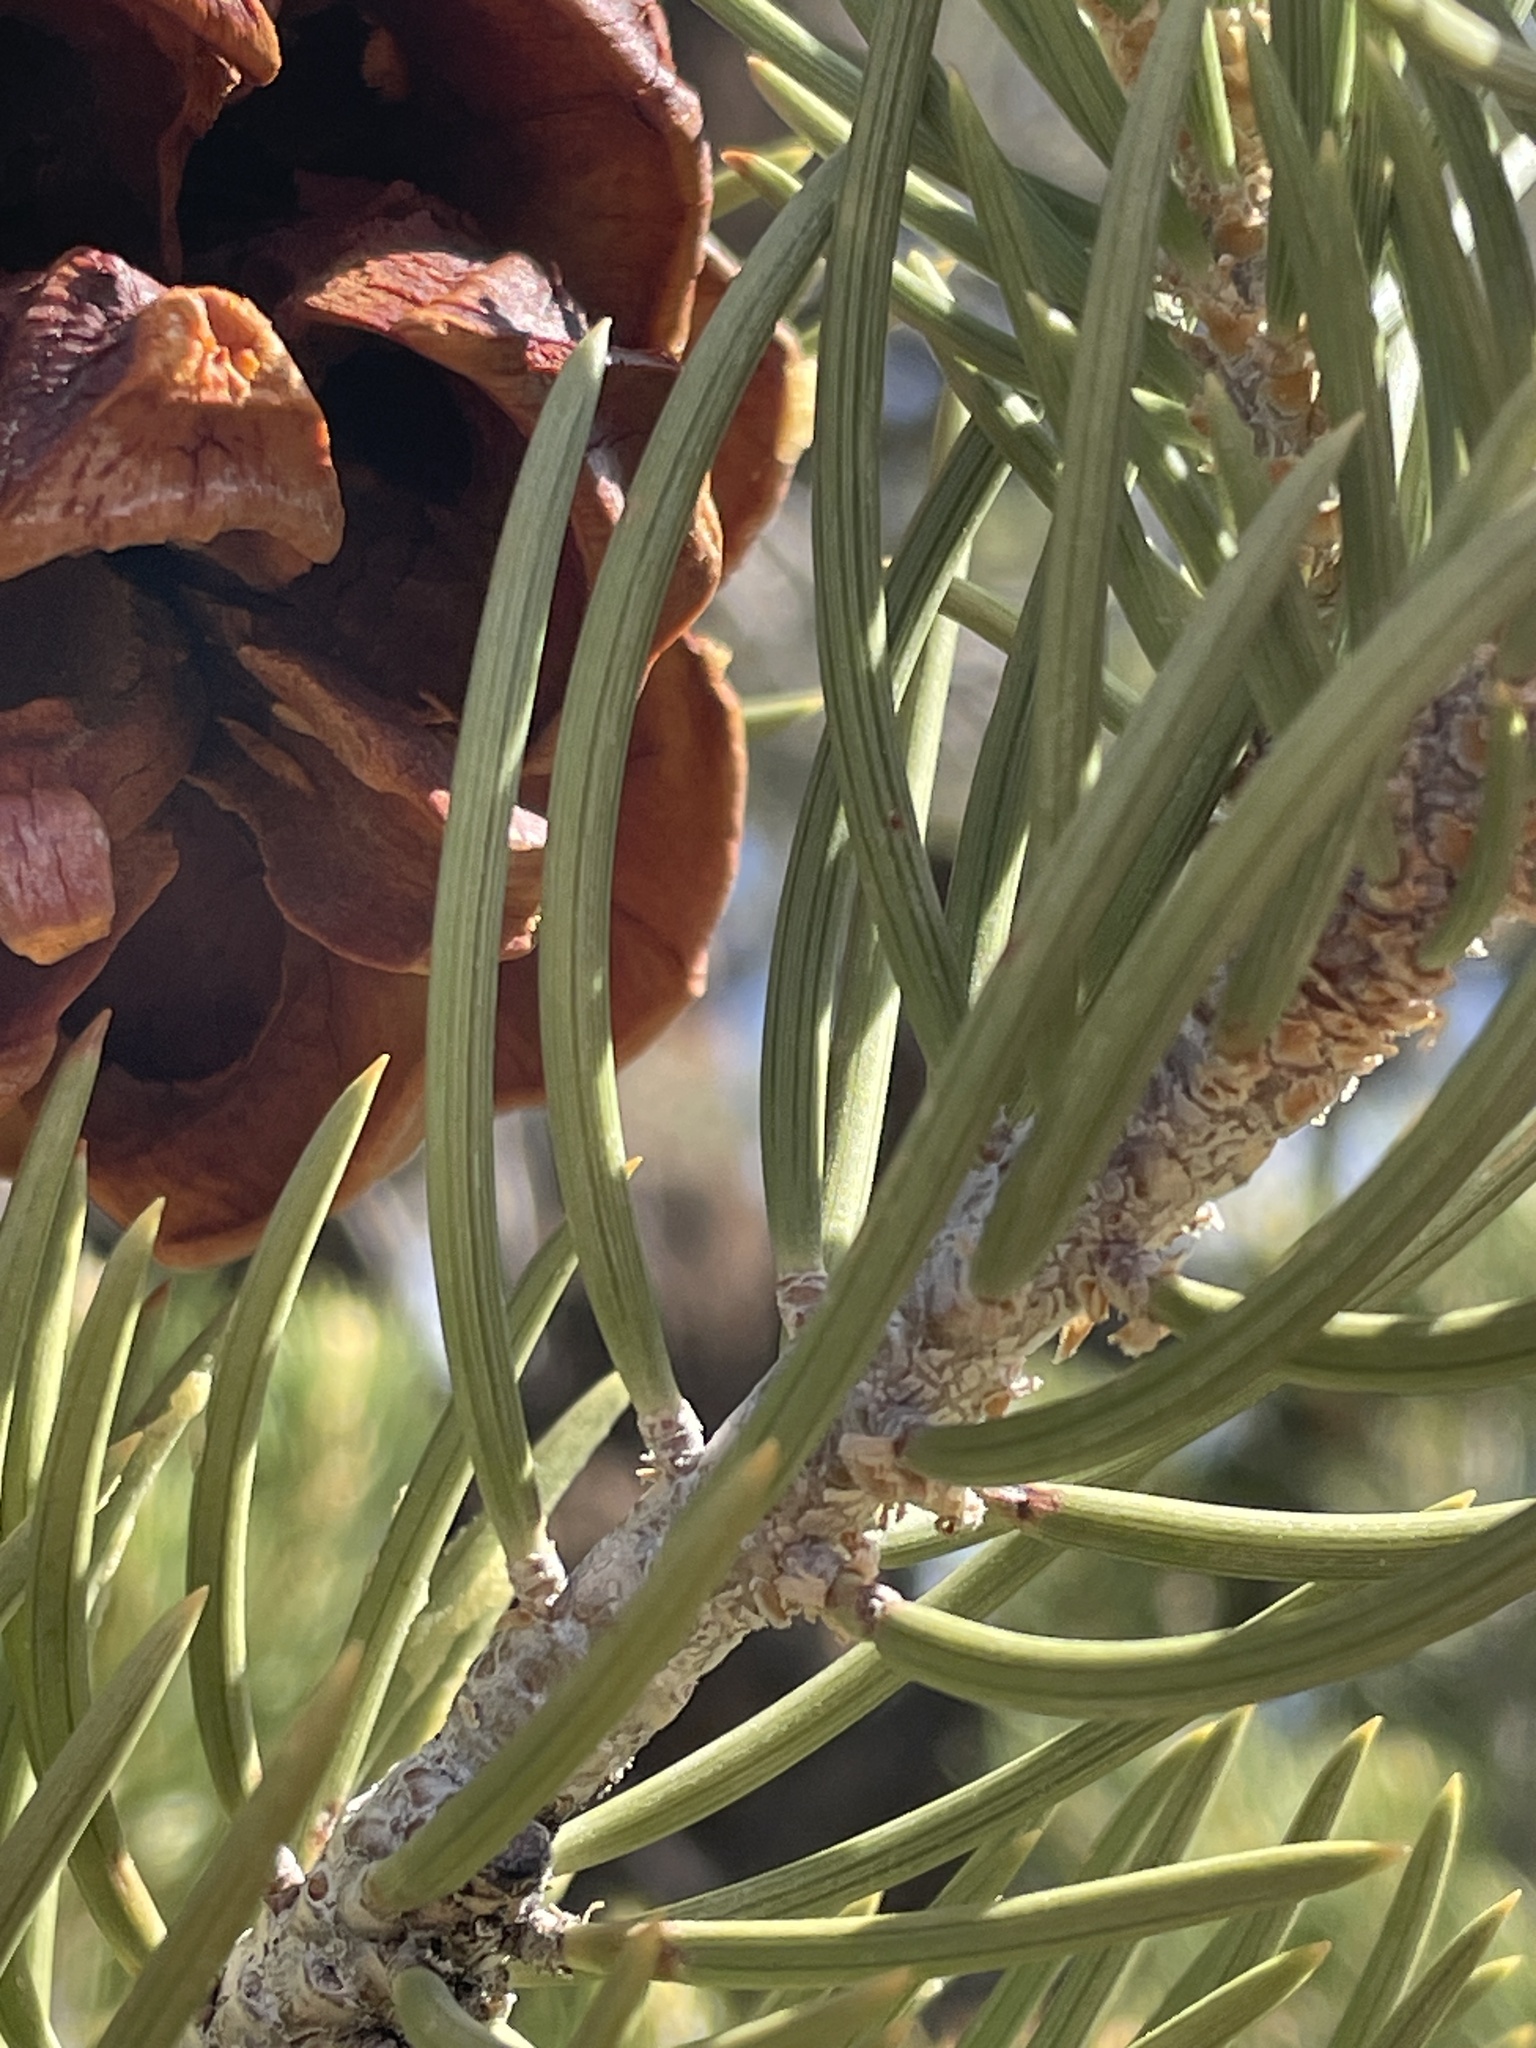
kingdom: Plantae
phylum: Tracheophyta
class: Pinopsida
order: Pinales
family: Pinaceae
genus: Pinus
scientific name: Pinus monophylla
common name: One-leaved nut pine
